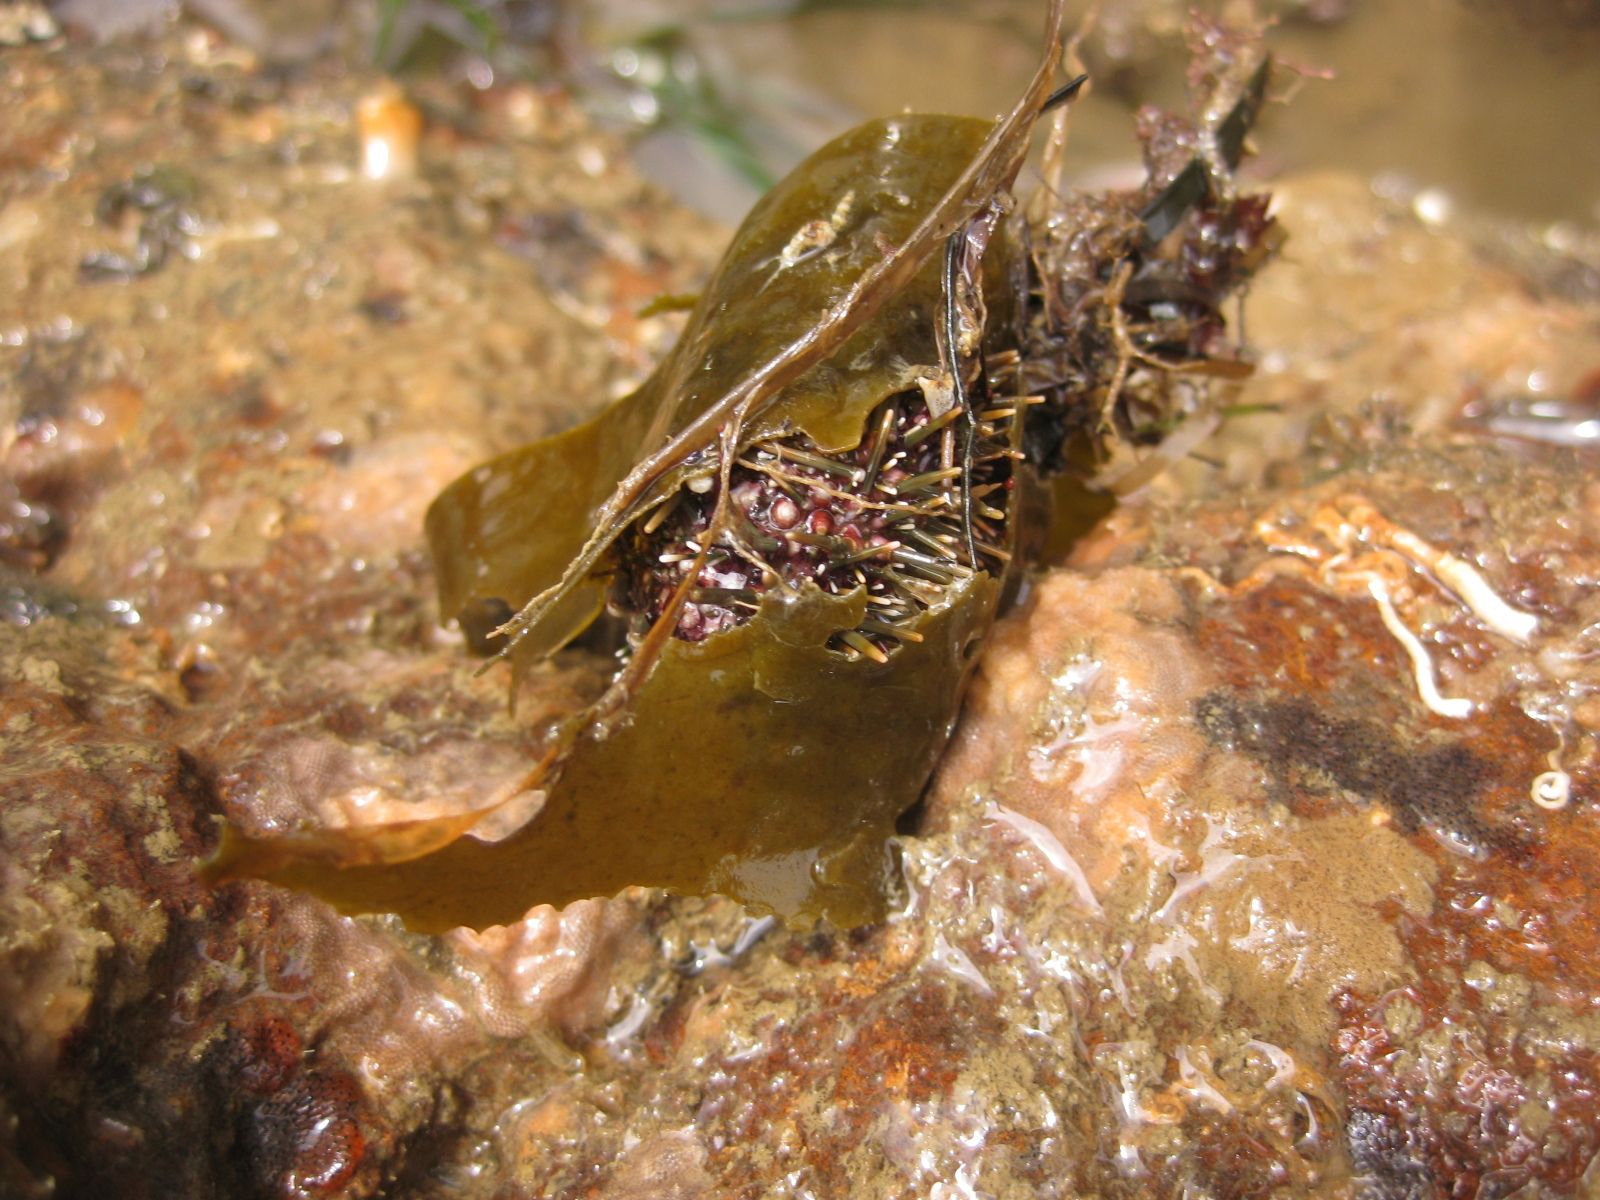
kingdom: Animalia
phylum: Echinodermata
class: Echinoidea
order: Camarodonta
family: Echinometridae
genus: Evechinus
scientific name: Evechinus chloroticus
